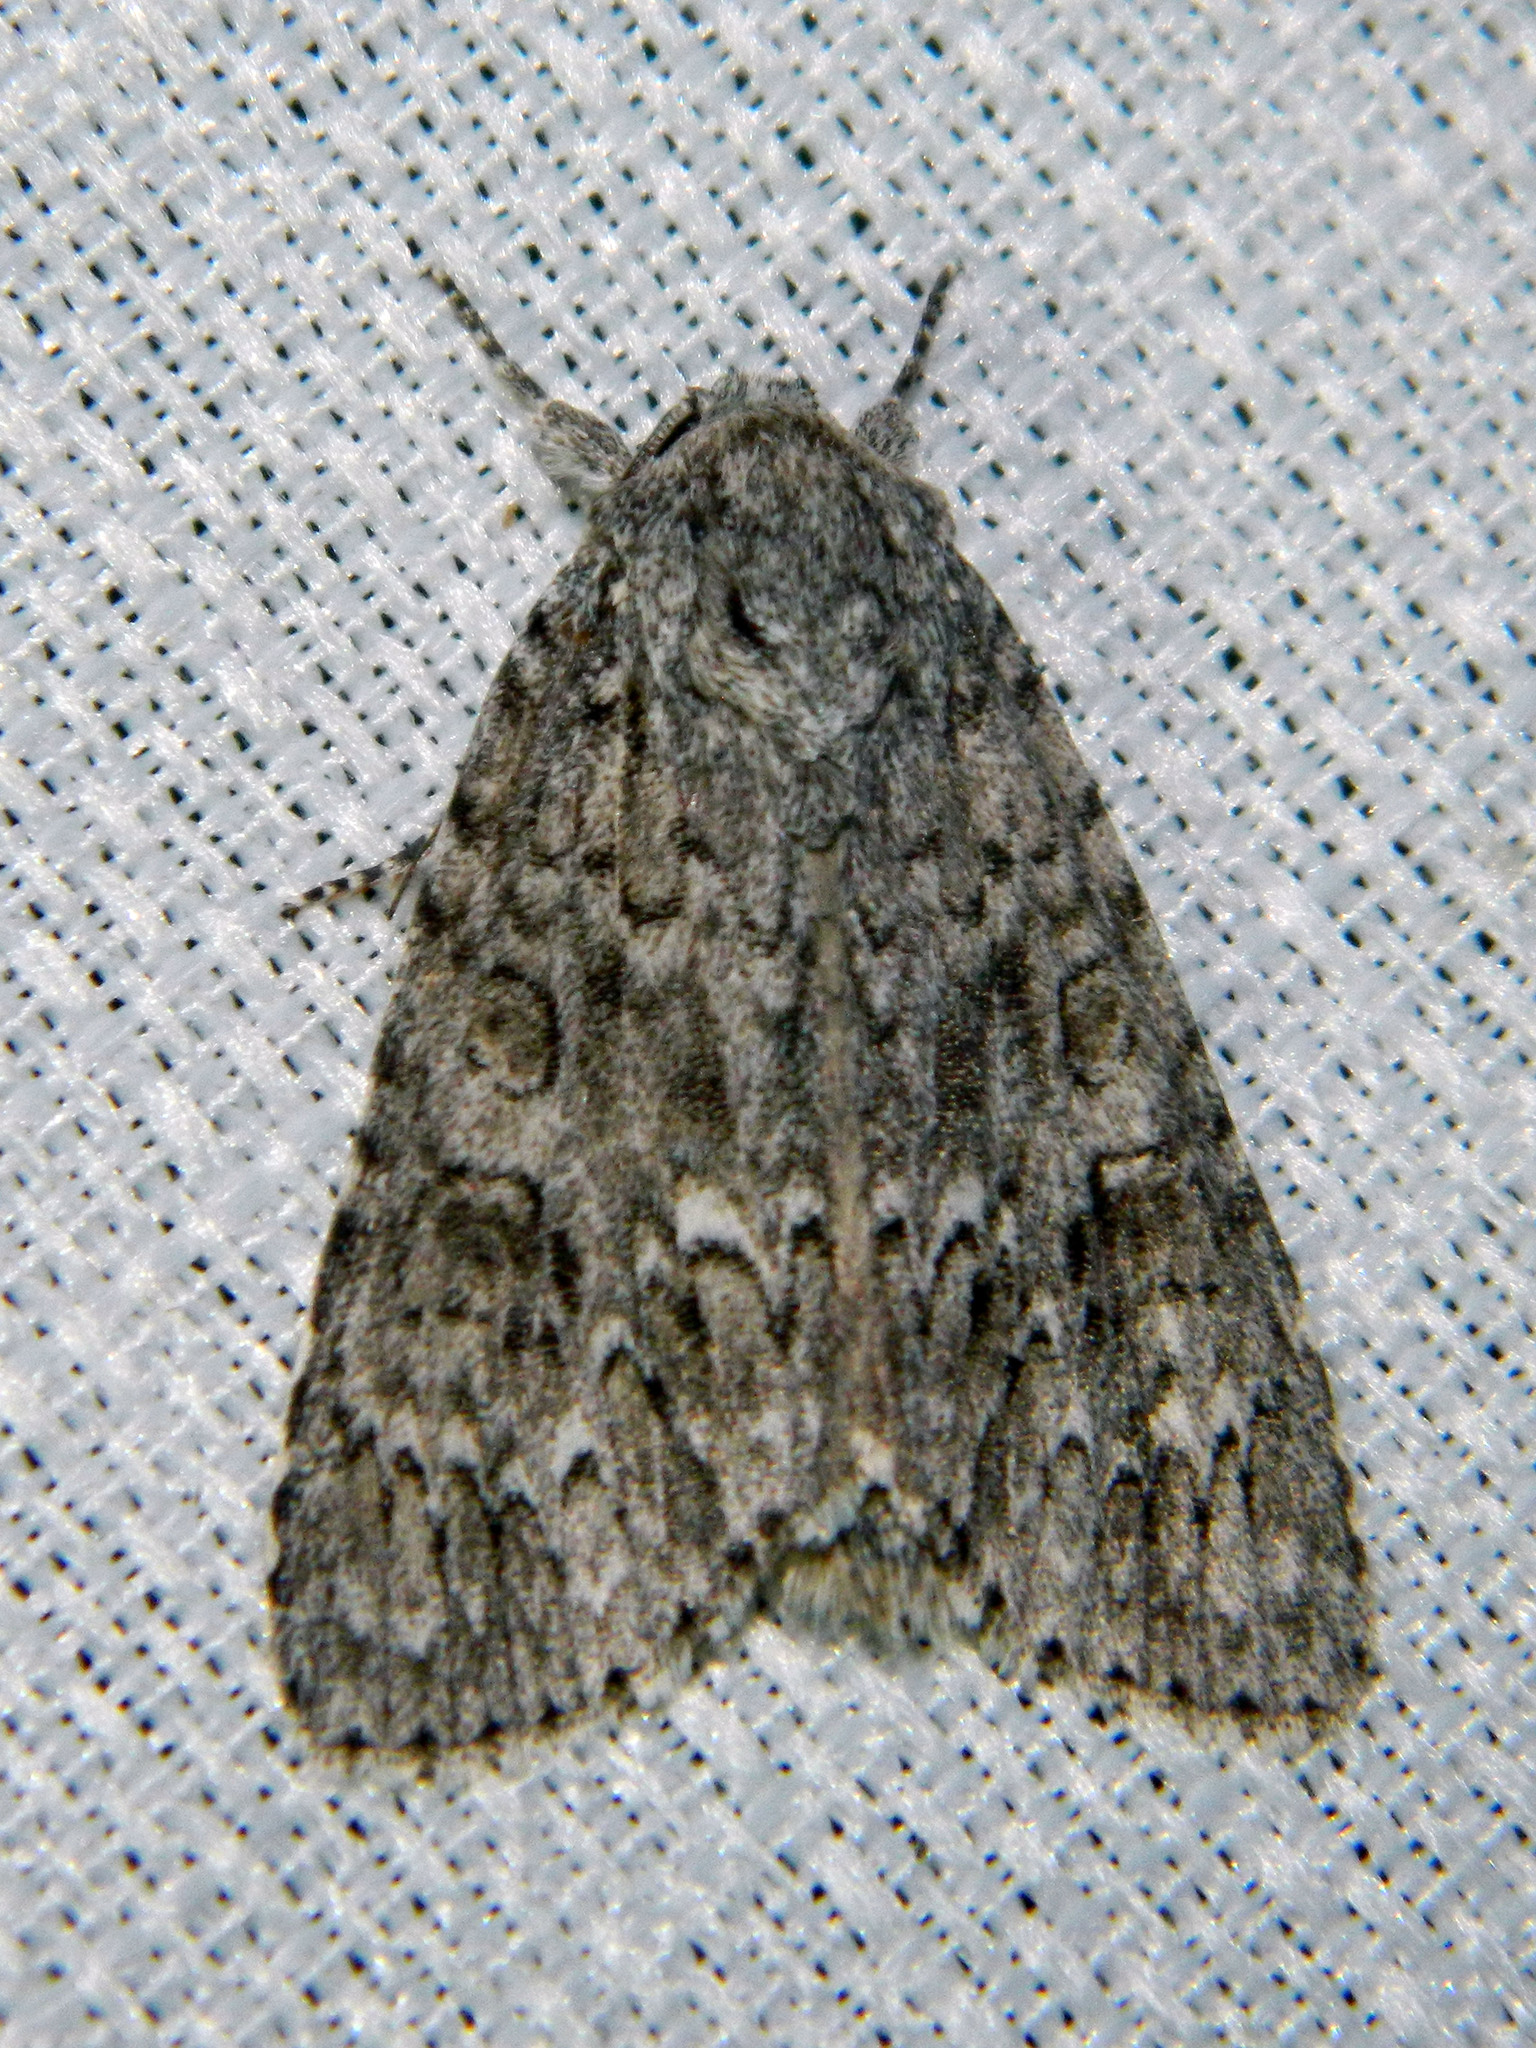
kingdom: Animalia
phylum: Arthropoda
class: Insecta
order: Lepidoptera
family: Noctuidae
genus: Acronicta
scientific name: Acronicta impleta
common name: Powdered dagger
